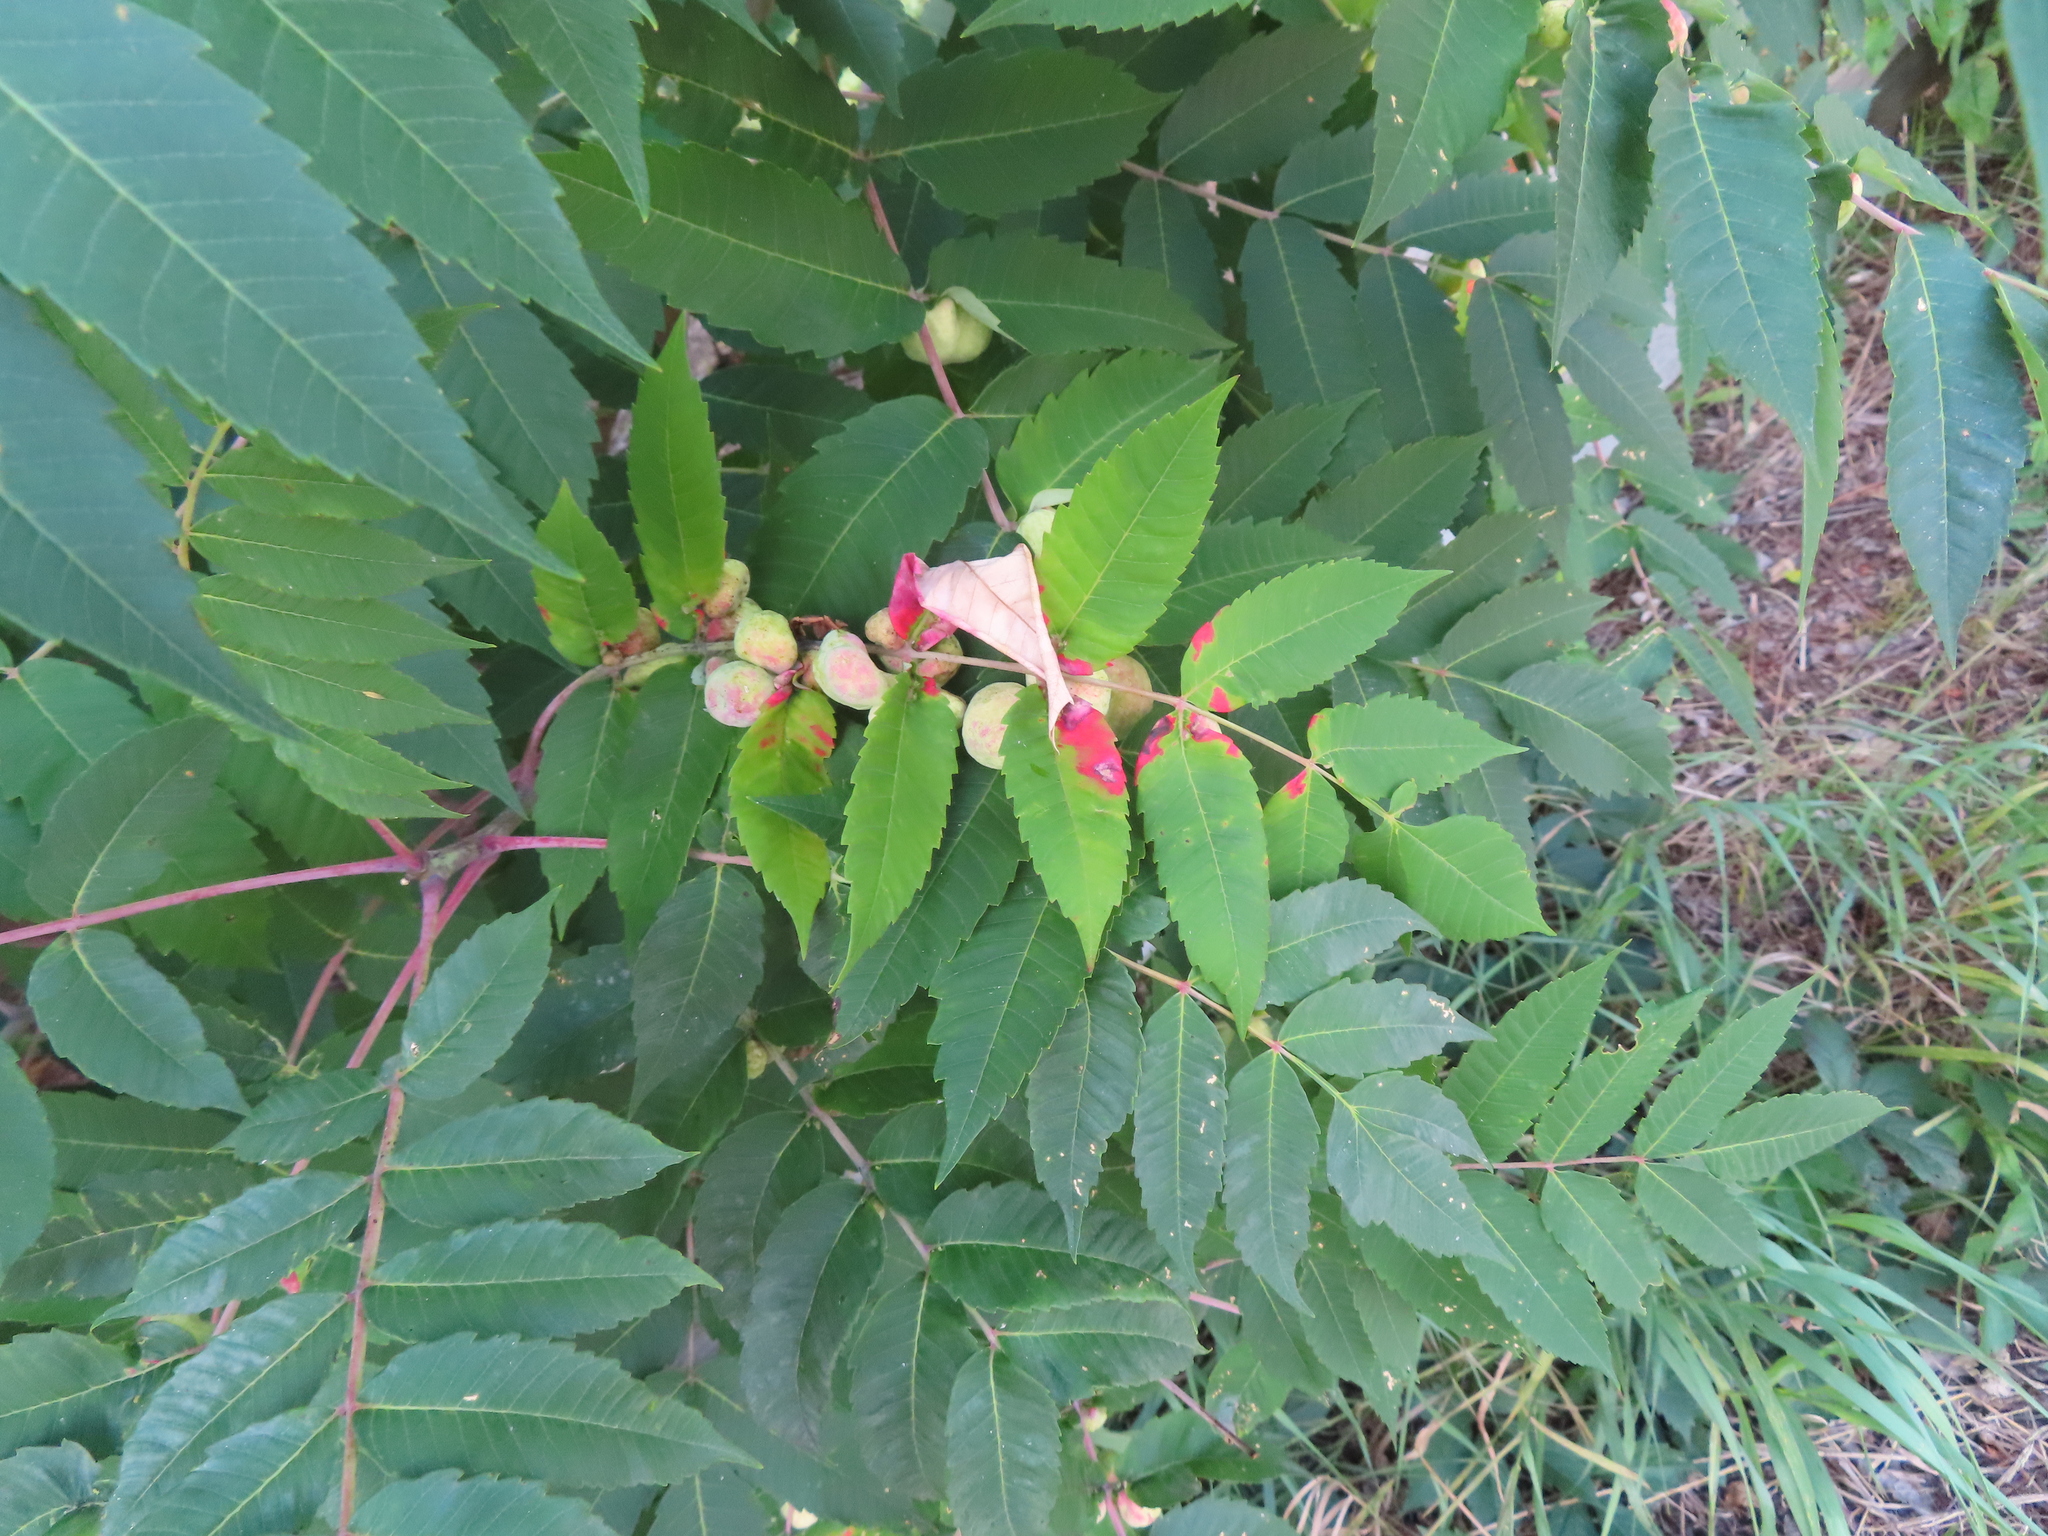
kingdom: Animalia
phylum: Arthropoda
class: Insecta
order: Hemiptera
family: Aphididae
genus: Melaphis
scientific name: Melaphis rhois
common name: Sumac gall aphid
